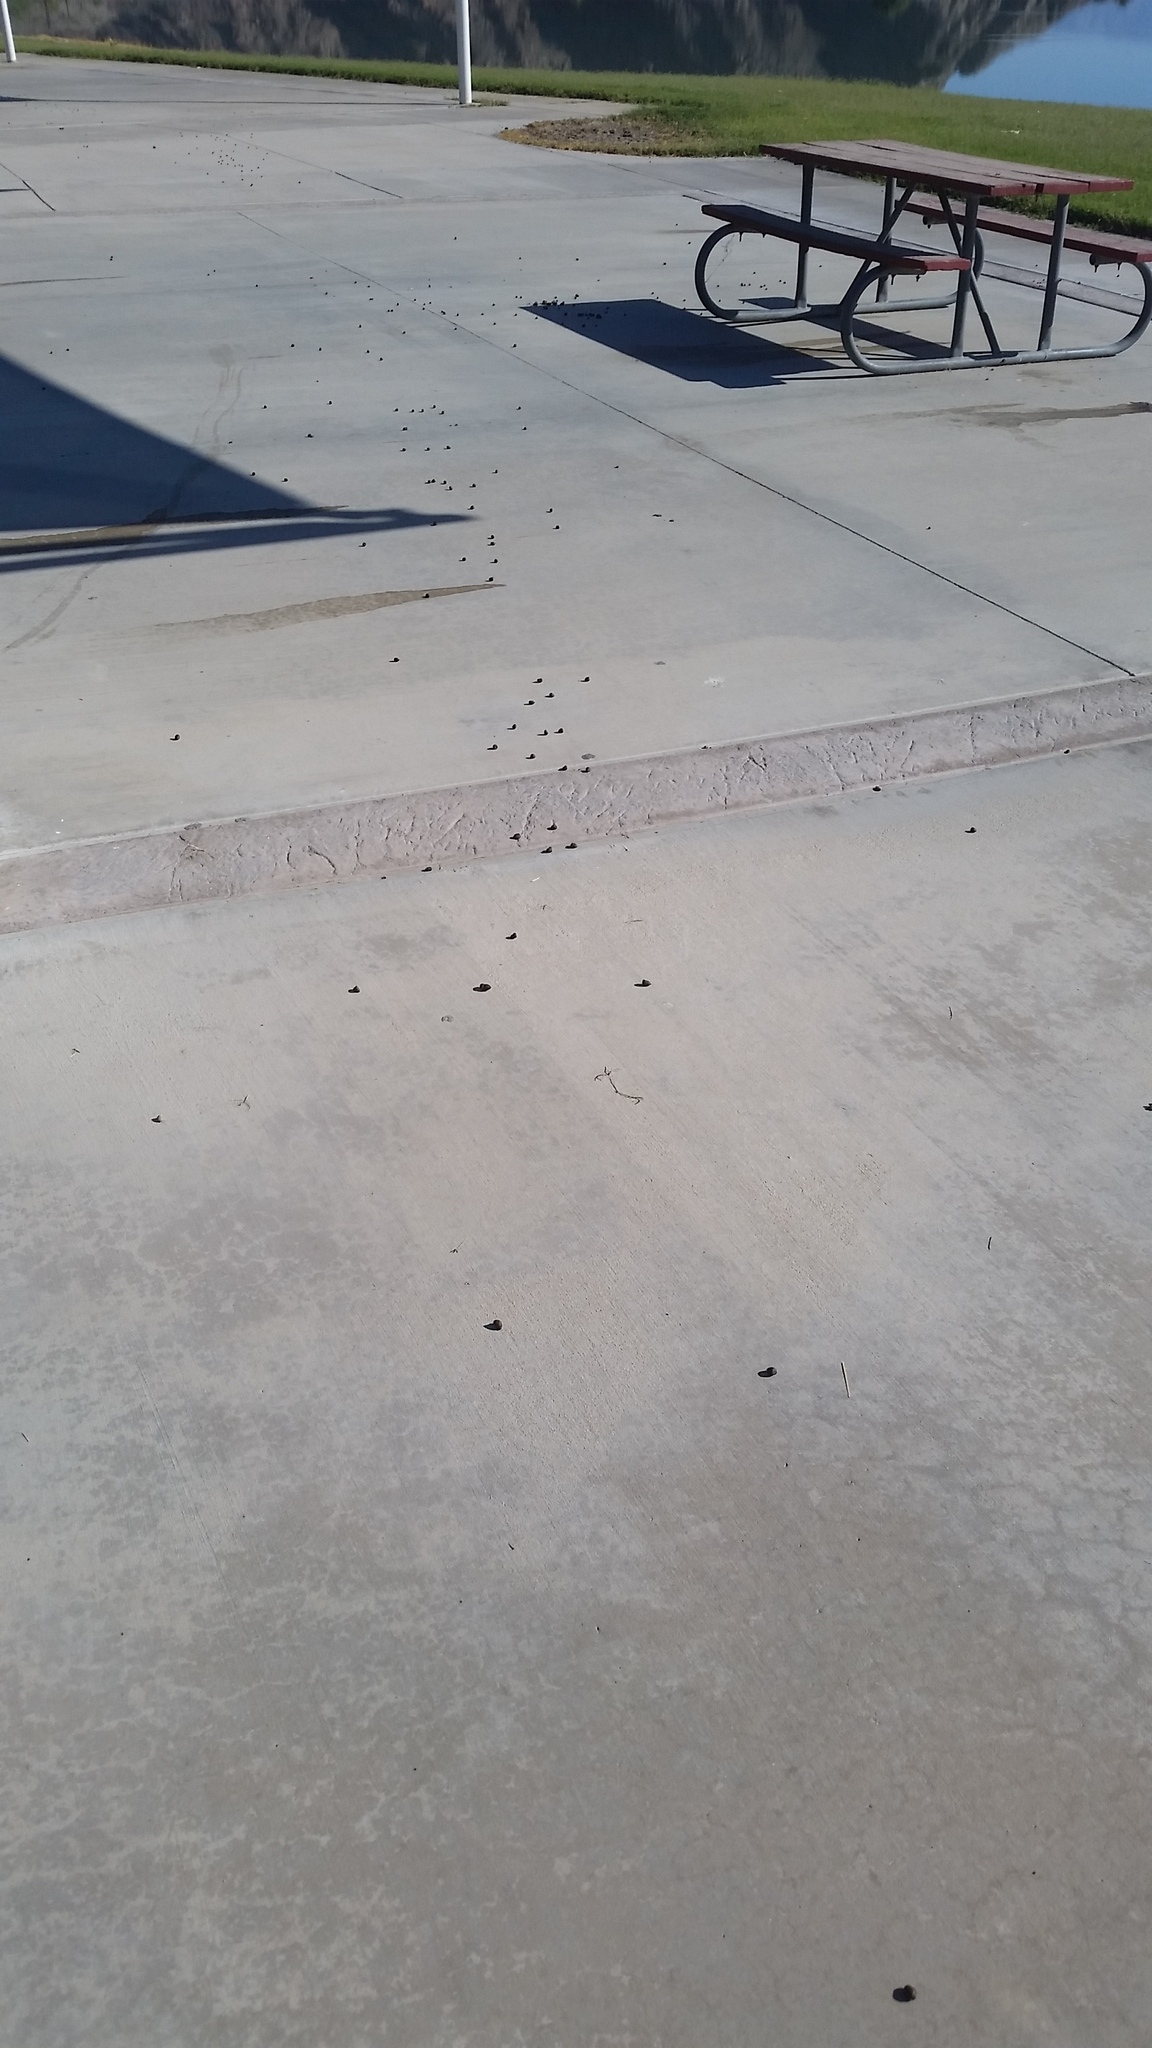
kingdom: Animalia
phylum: Chordata
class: Mammalia
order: Artiodactyla
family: Bovidae
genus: Ovis
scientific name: Ovis canadensis
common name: Bighorn sheep
